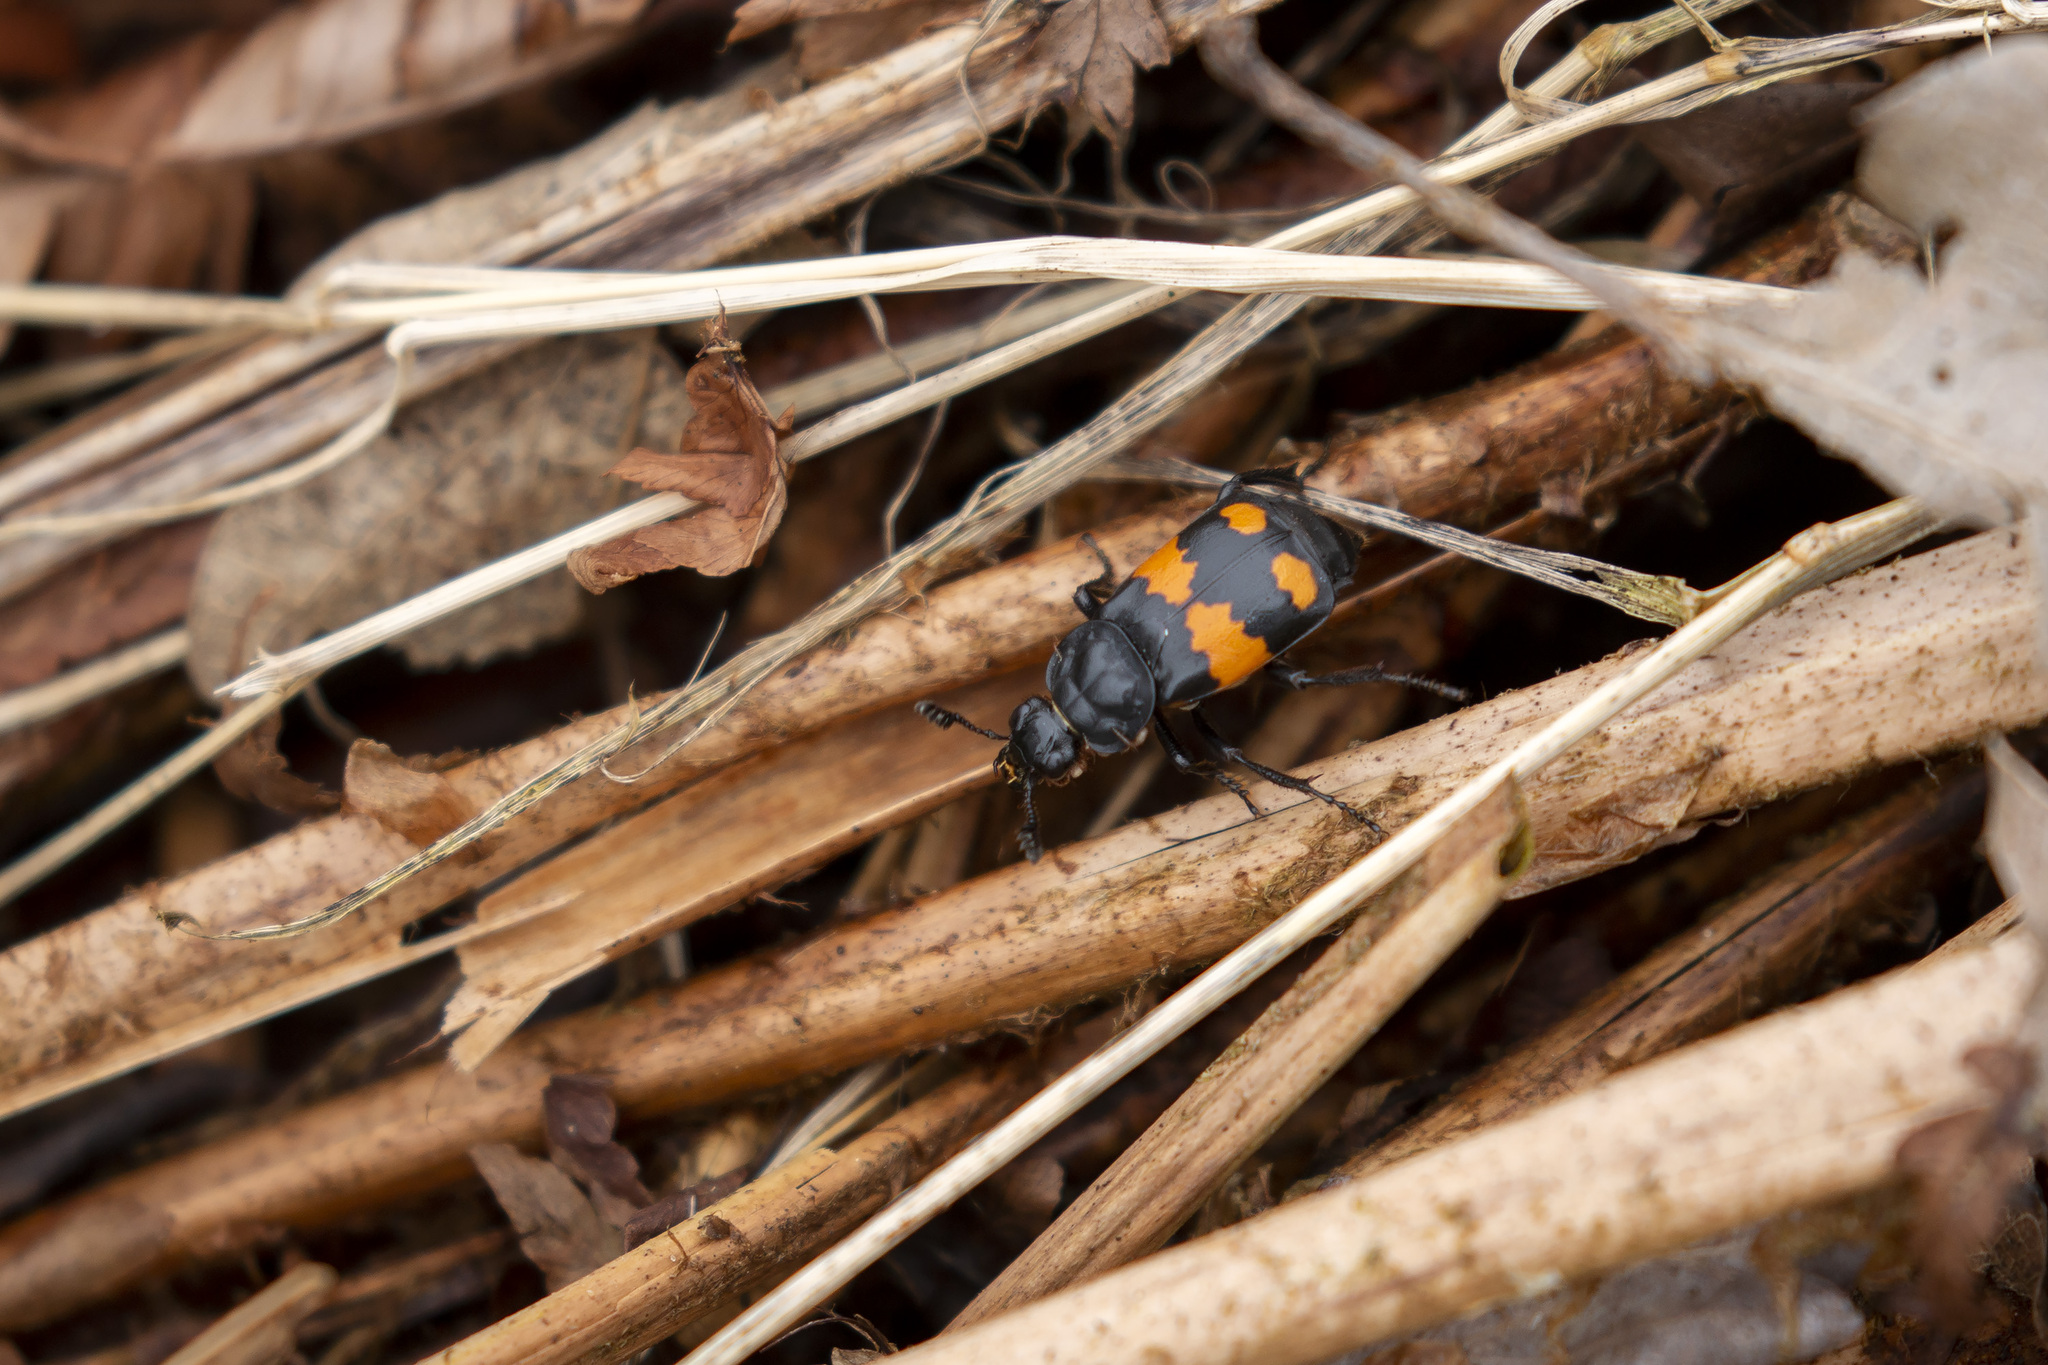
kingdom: Animalia
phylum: Arthropoda
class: Insecta
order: Coleoptera
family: Staphylinidae
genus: Nicrophorus
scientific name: Nicrophorus vespilloides
